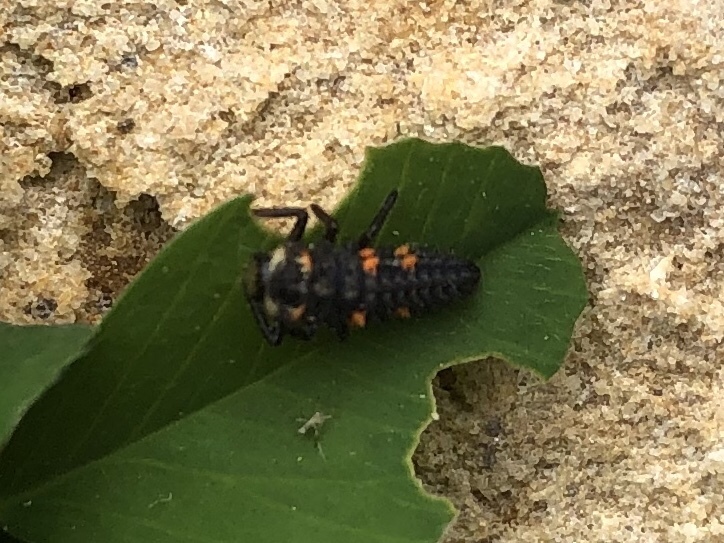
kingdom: Animalia
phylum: Arthropoda
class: Insecta
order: Coleoptera
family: Coccinellidae
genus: Coccinella
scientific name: Coccinella septempunctata
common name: Sevenspotted lady beetle
